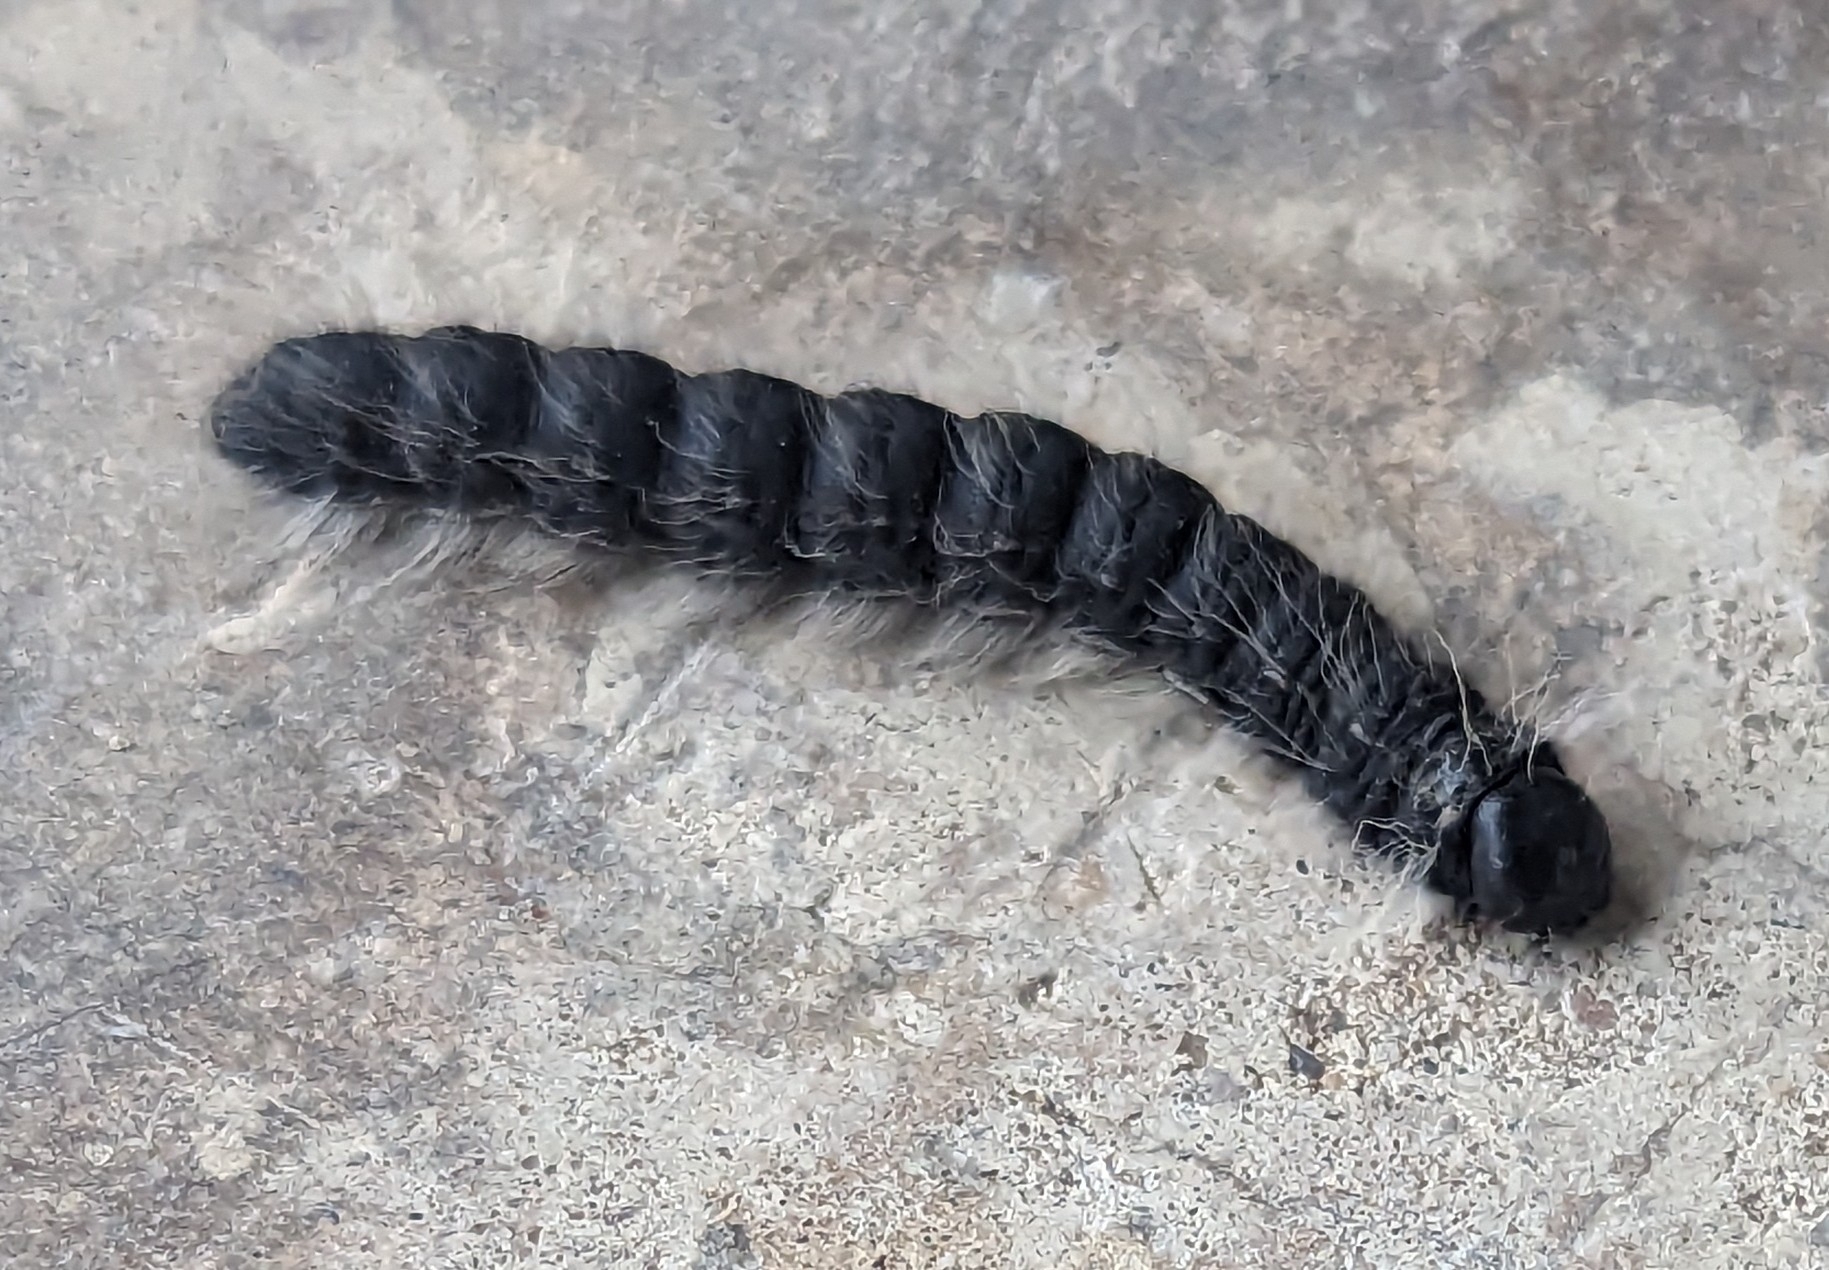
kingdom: Animalia
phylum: Arthropoda
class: Insecta
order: Lepidoptera
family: Notodontidae
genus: Datana
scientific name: Datana integerrima
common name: Walnut caterpillar
